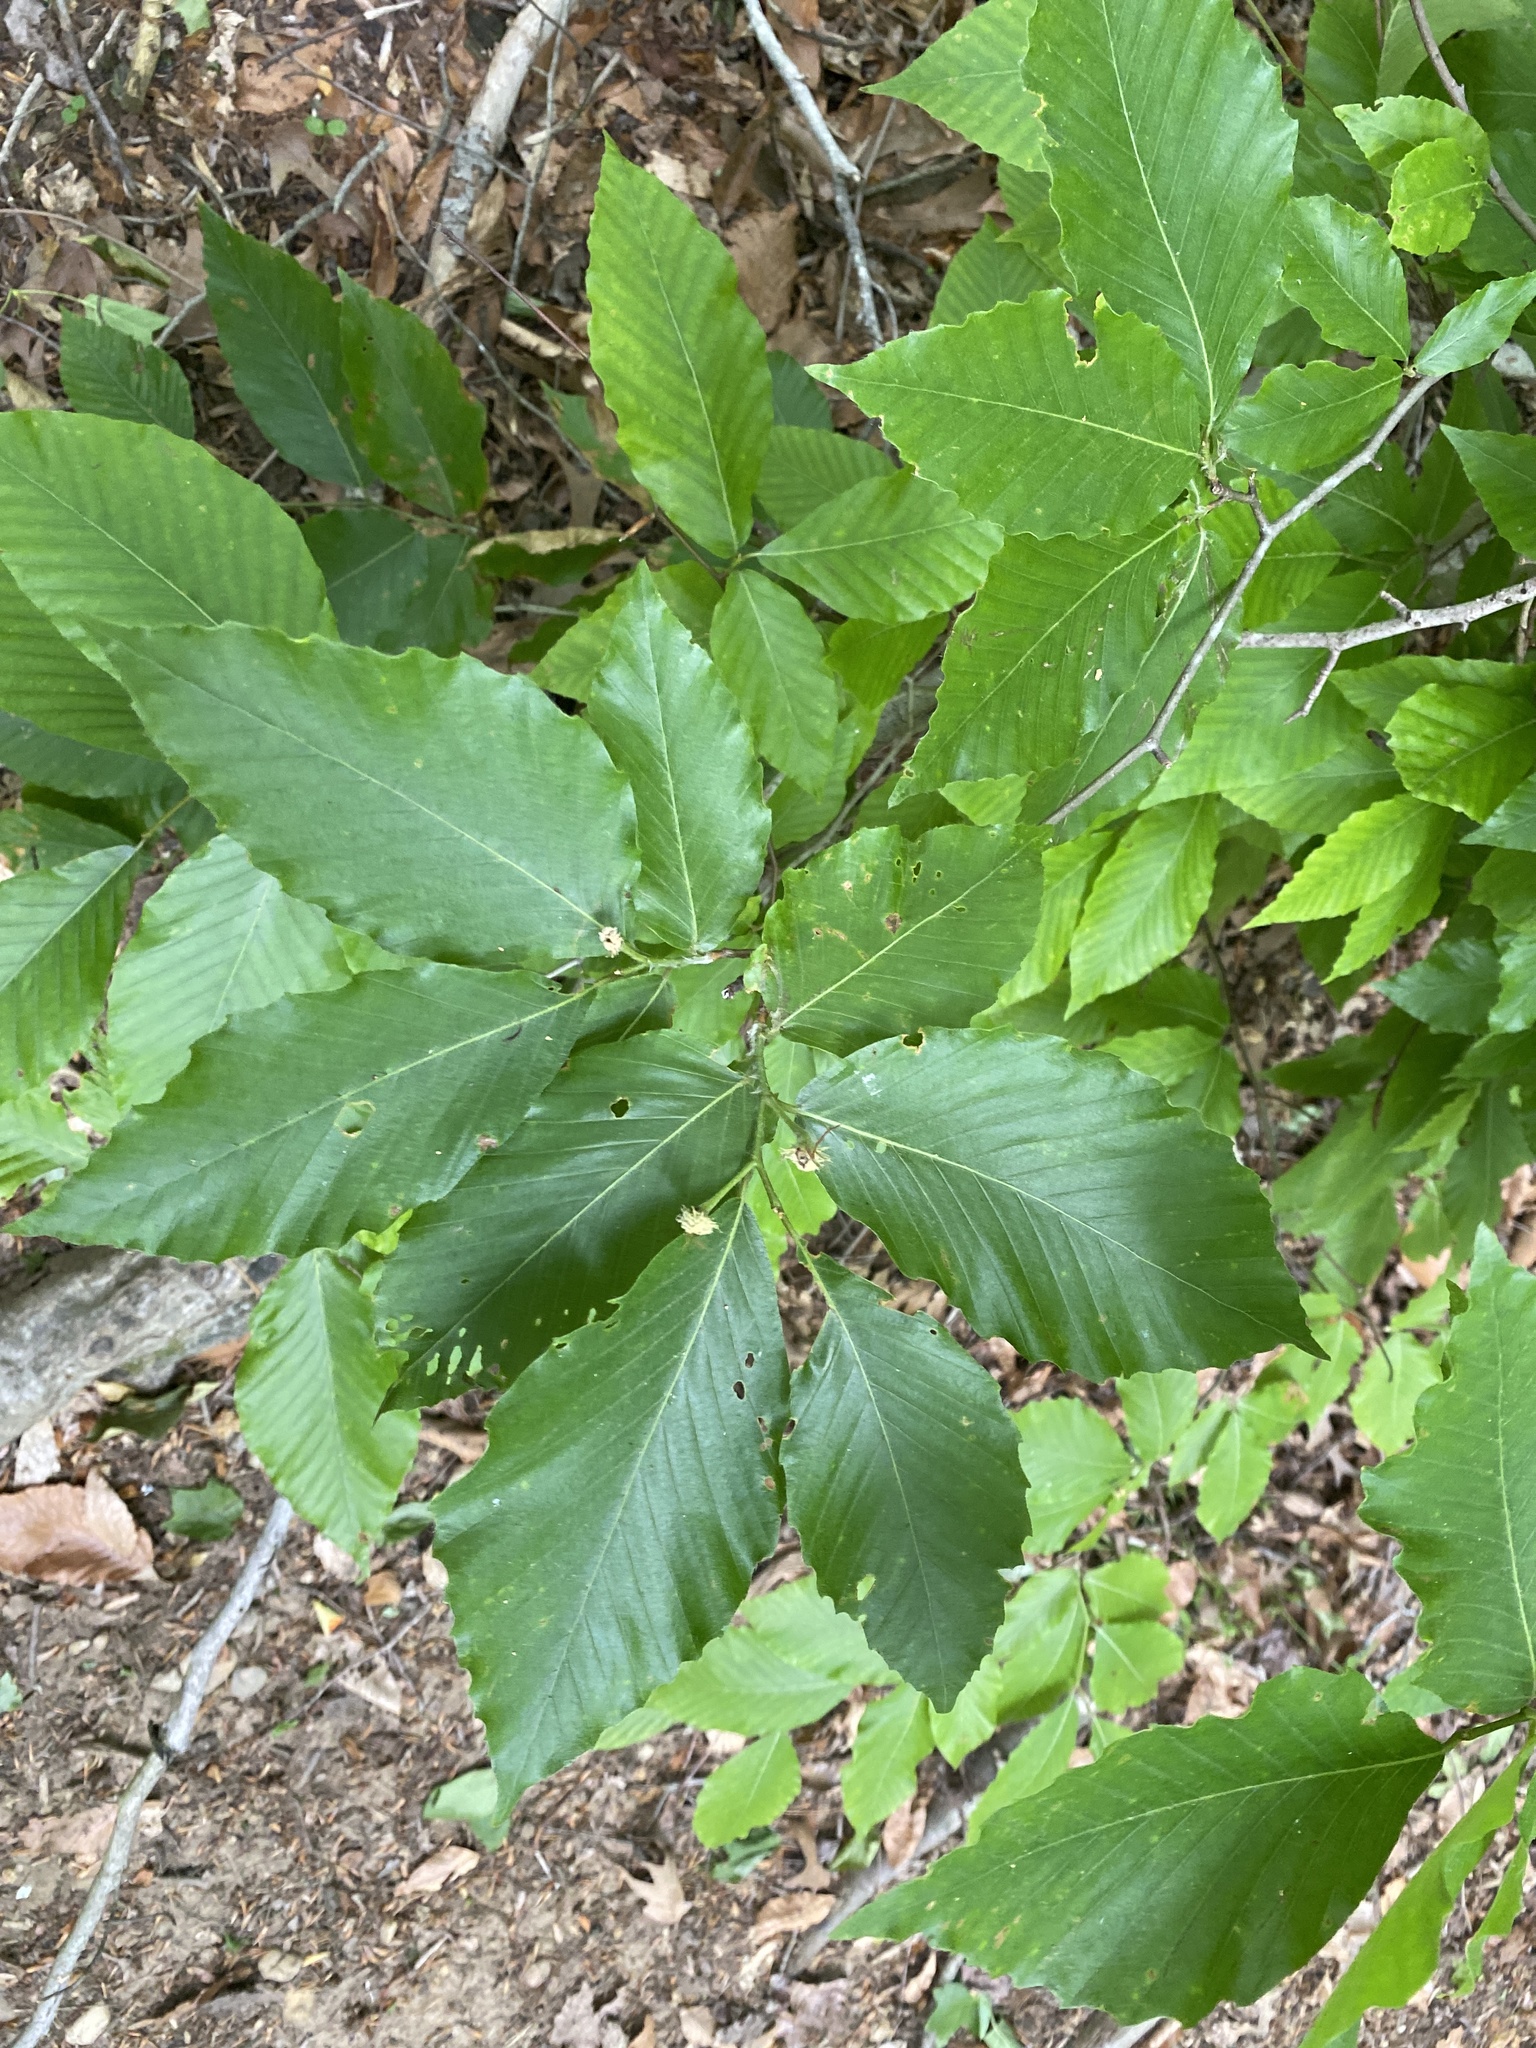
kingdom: Plantae
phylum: Tracheophyta
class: Magnoliopsida
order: Fagales
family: Fagaceae
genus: Fagus
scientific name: Fagus grandifolia
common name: American beech
